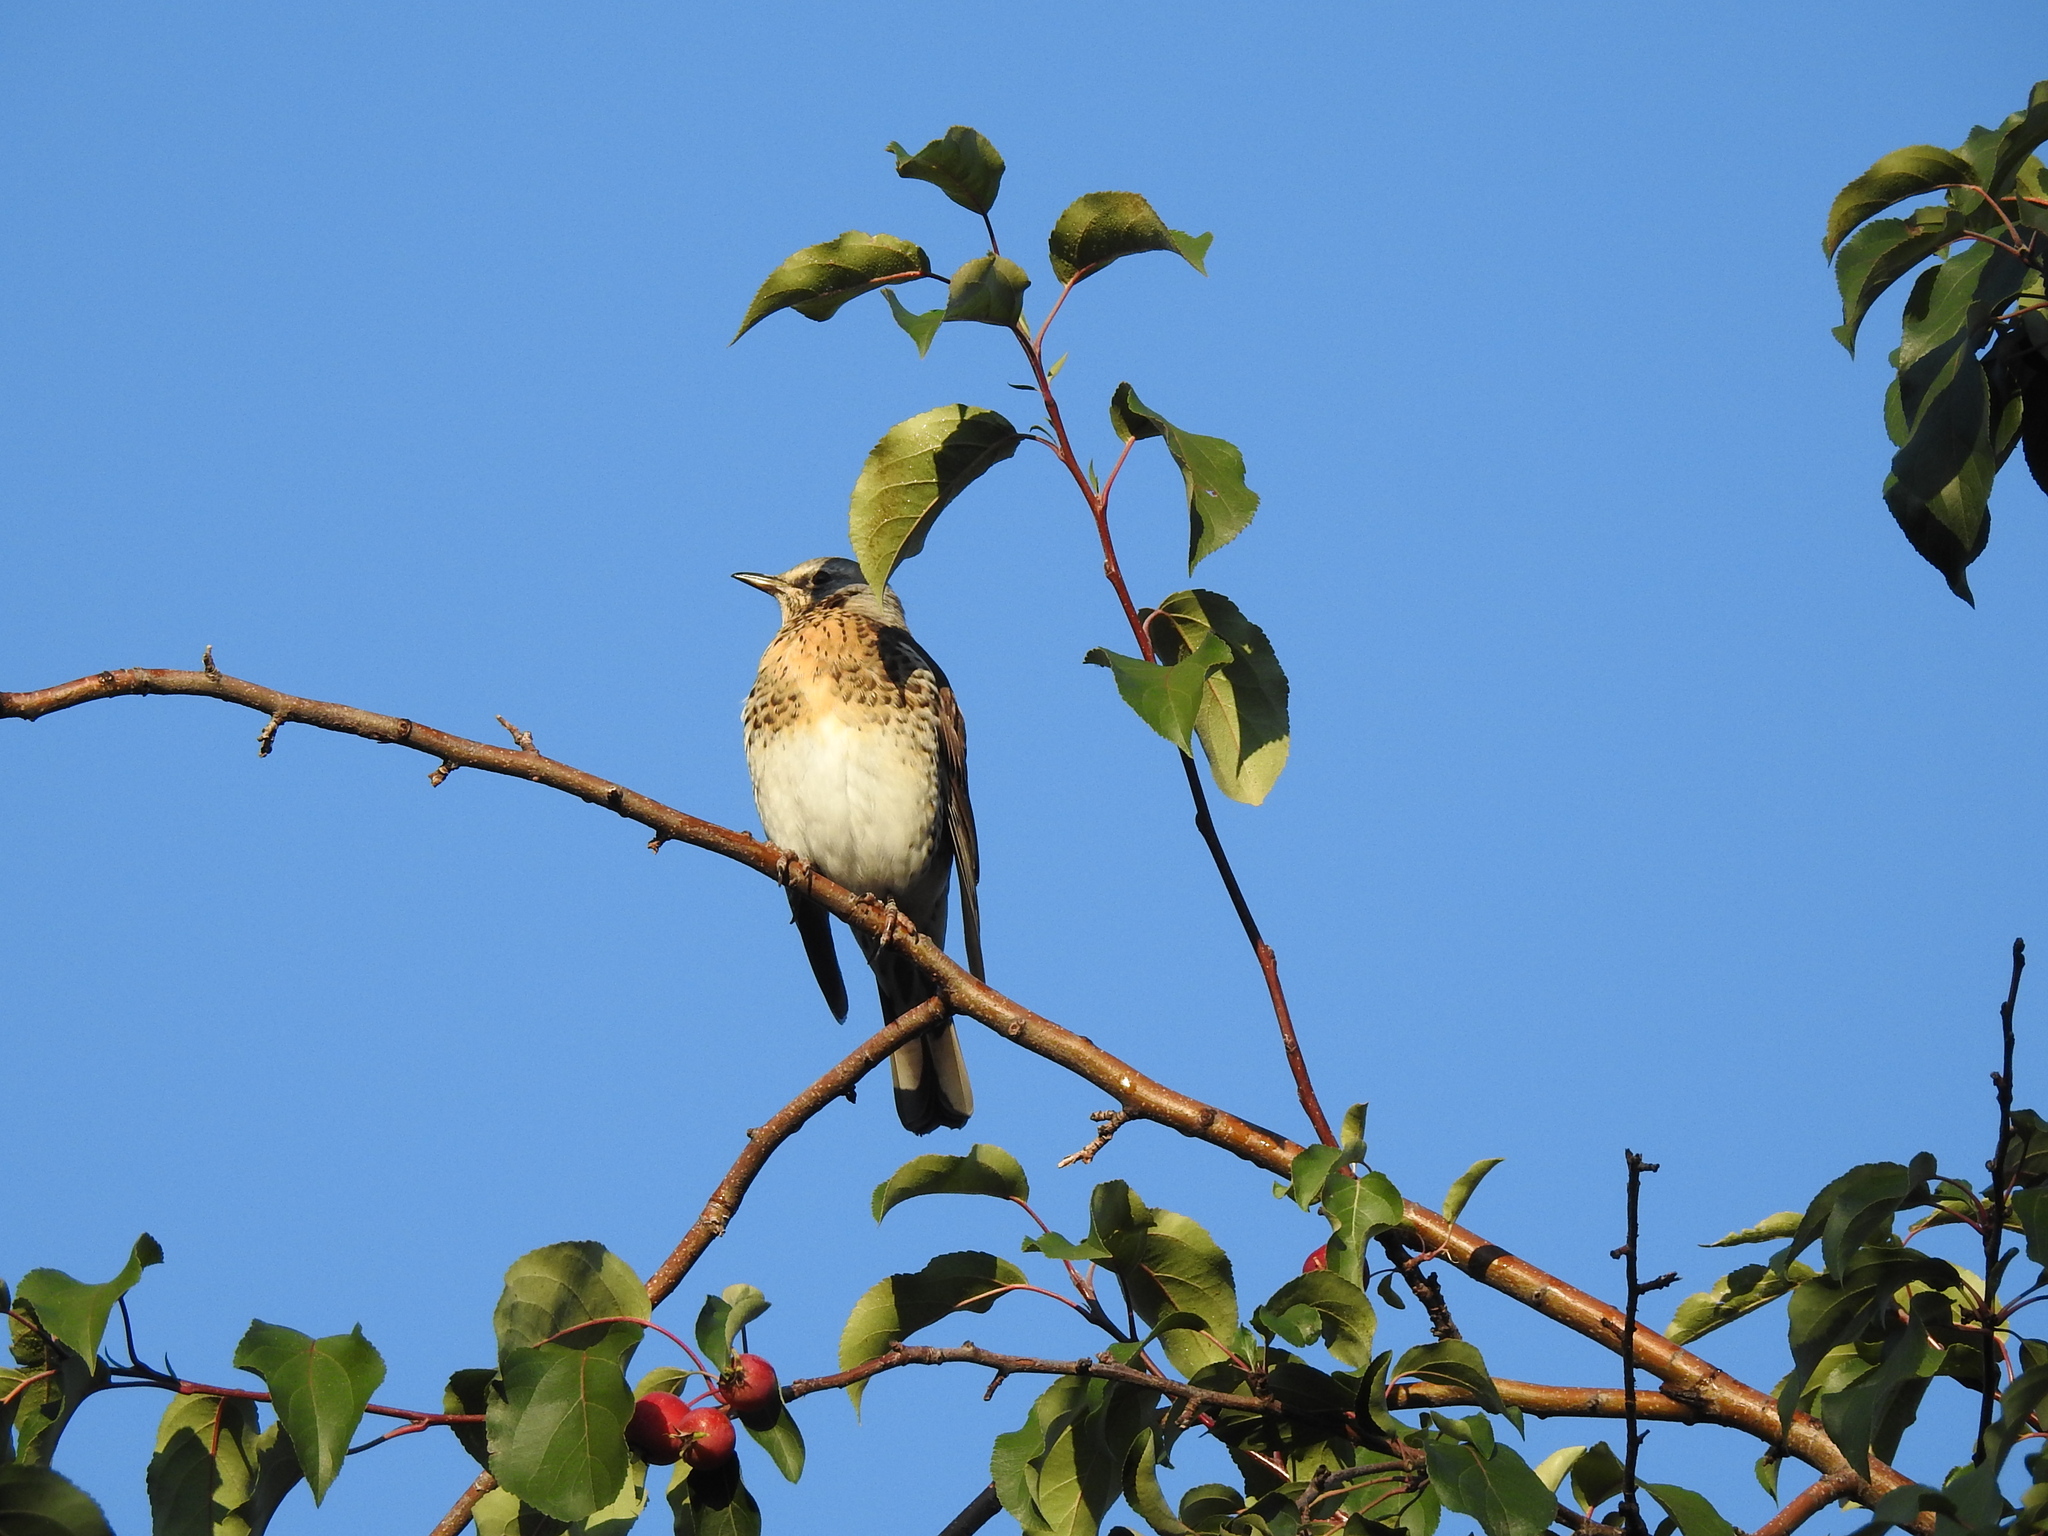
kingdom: Animalia
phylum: Chordata
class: Aves
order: Passeriformes
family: Turdidae
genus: Turdus
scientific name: Turdus pilaris
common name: Fieldfare
